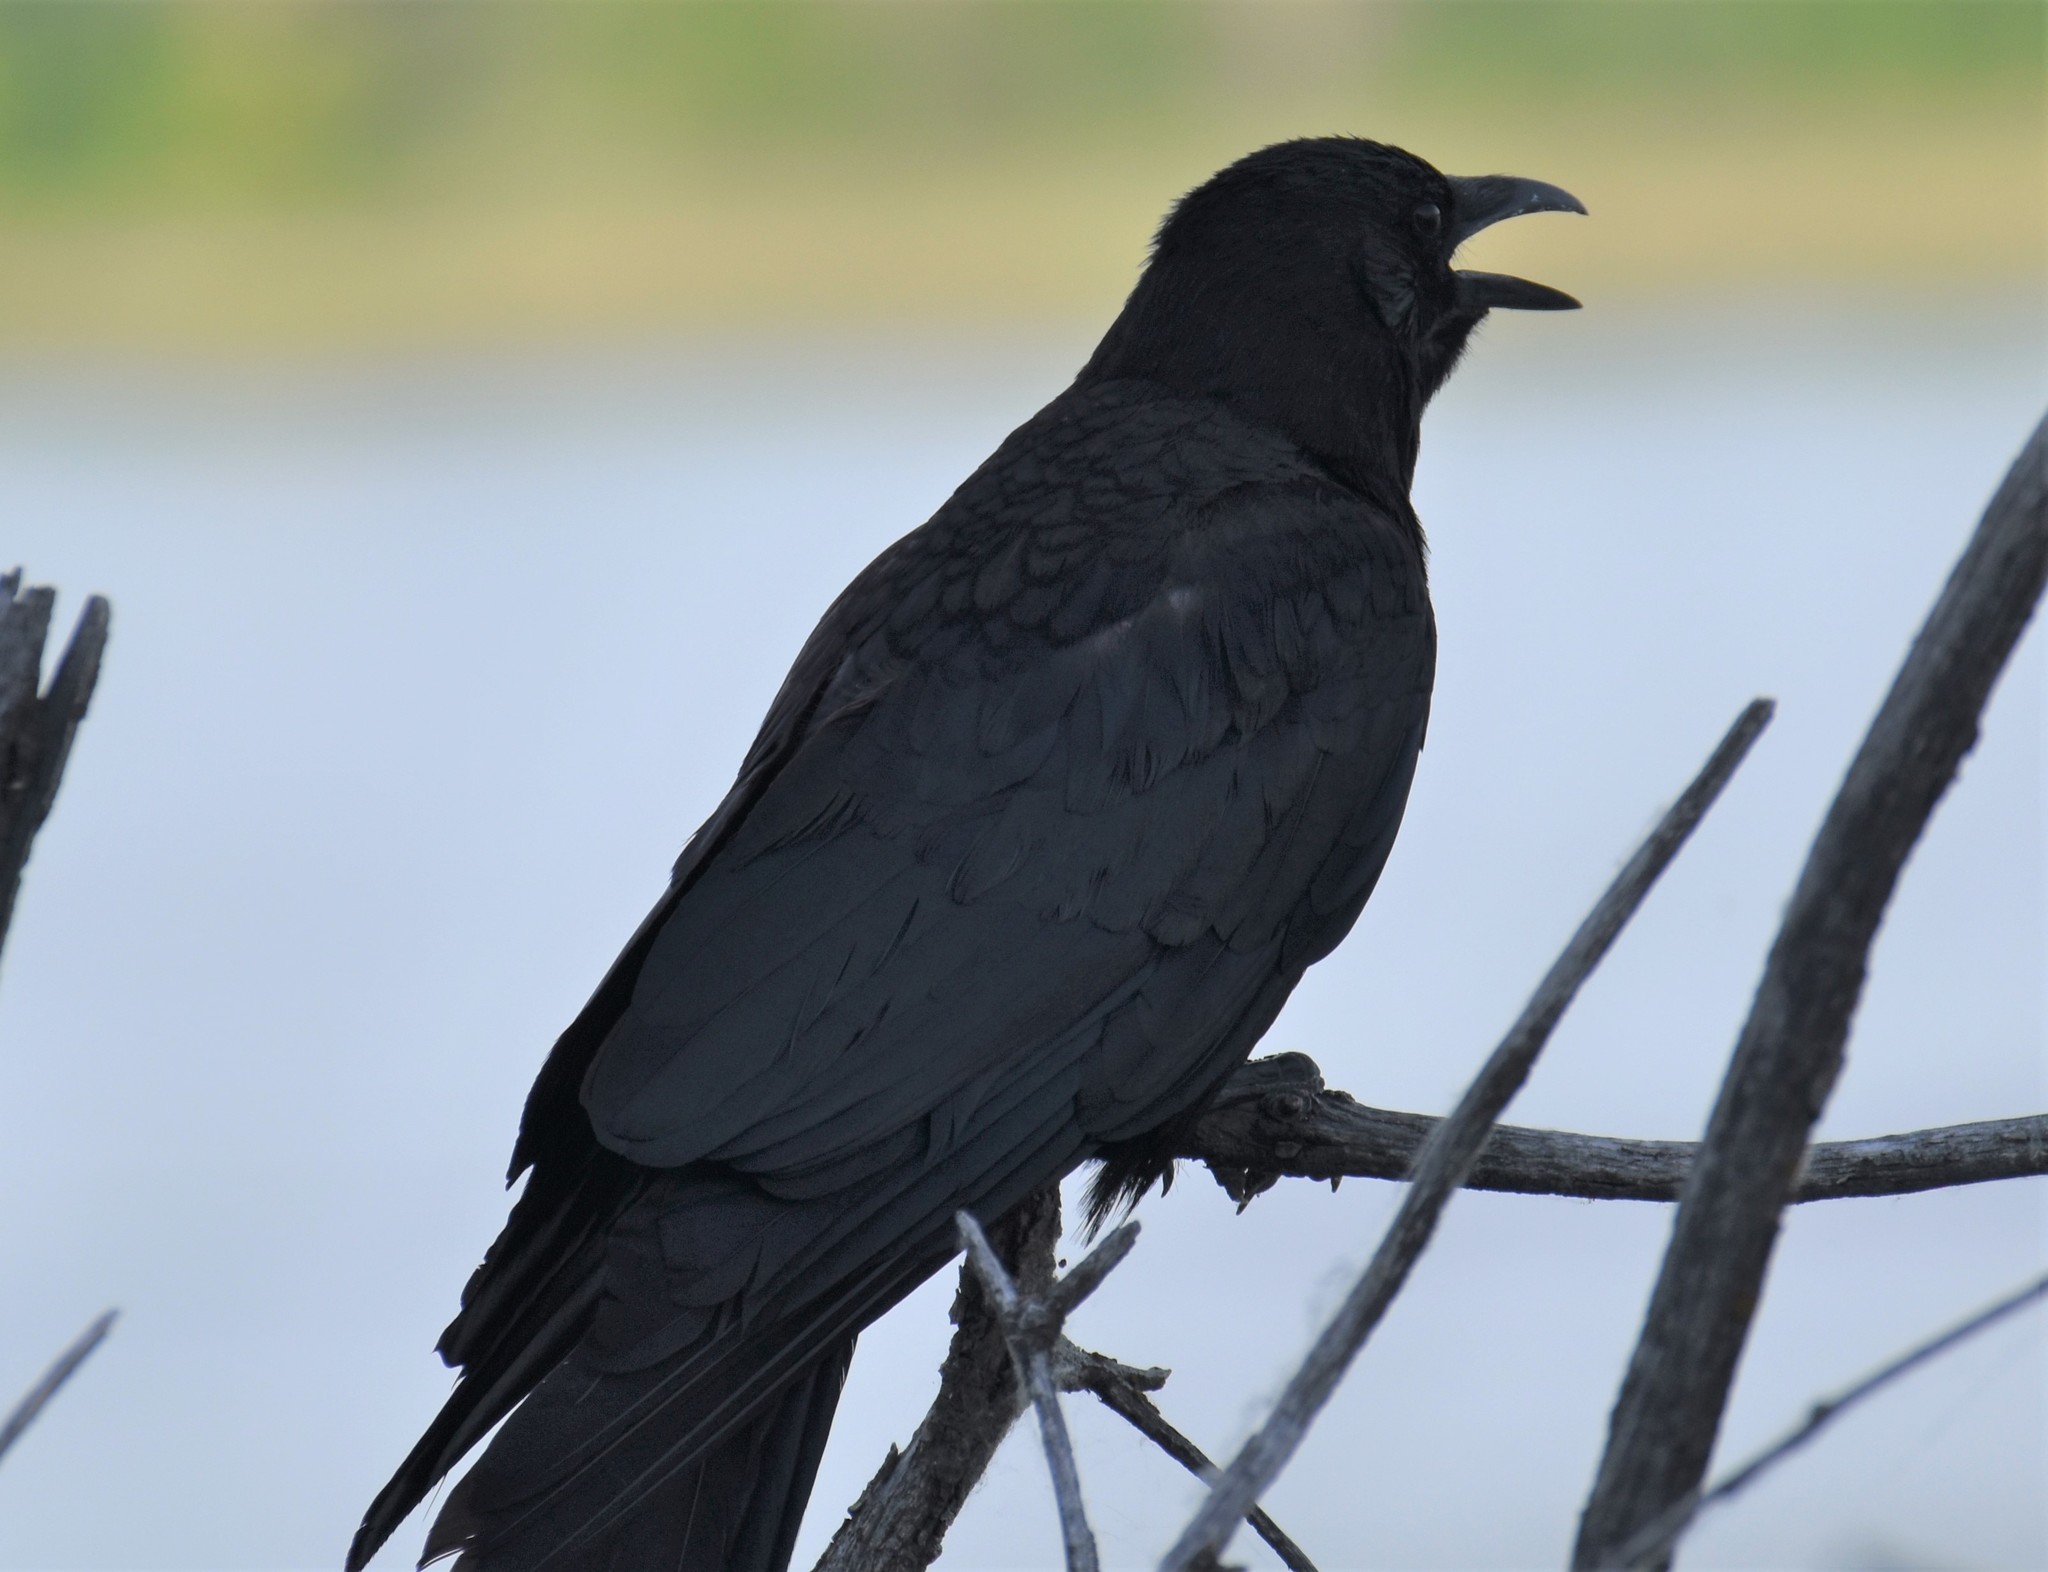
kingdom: Animalia
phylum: Chordata
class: Aves
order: Passeriformes
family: Corvidae
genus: Corvus
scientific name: Corvus brachyrhynchos
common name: American crow
